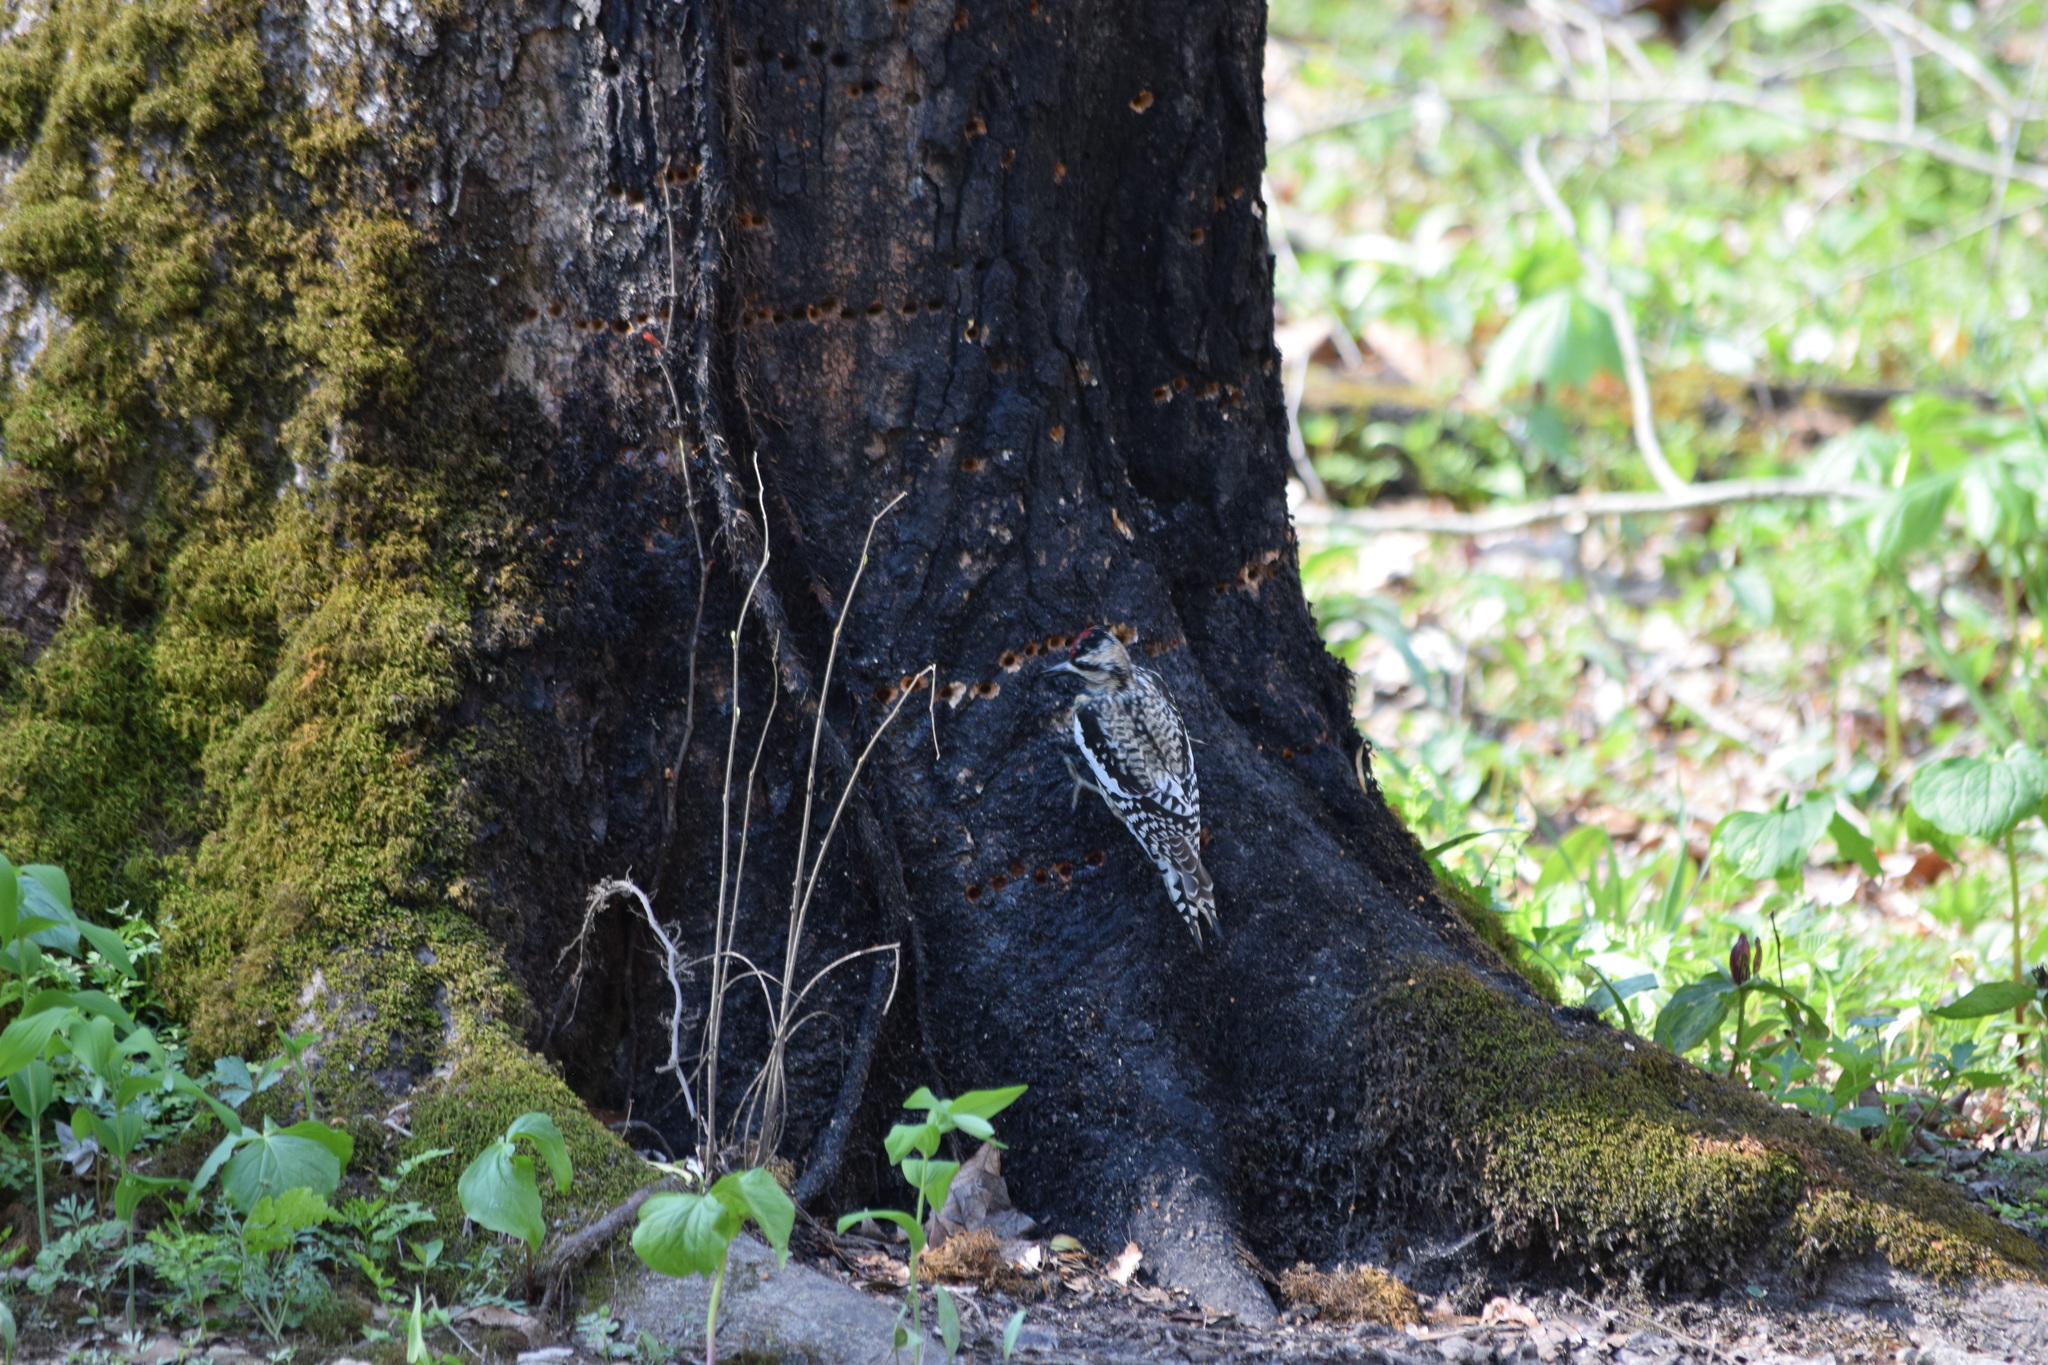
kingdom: Animalia
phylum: Chordata
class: Aves
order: Piciformes
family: Picidae
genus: Sphyrapicus
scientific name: Sphyrapicus varius
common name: Yellow-bellied sapsucker
